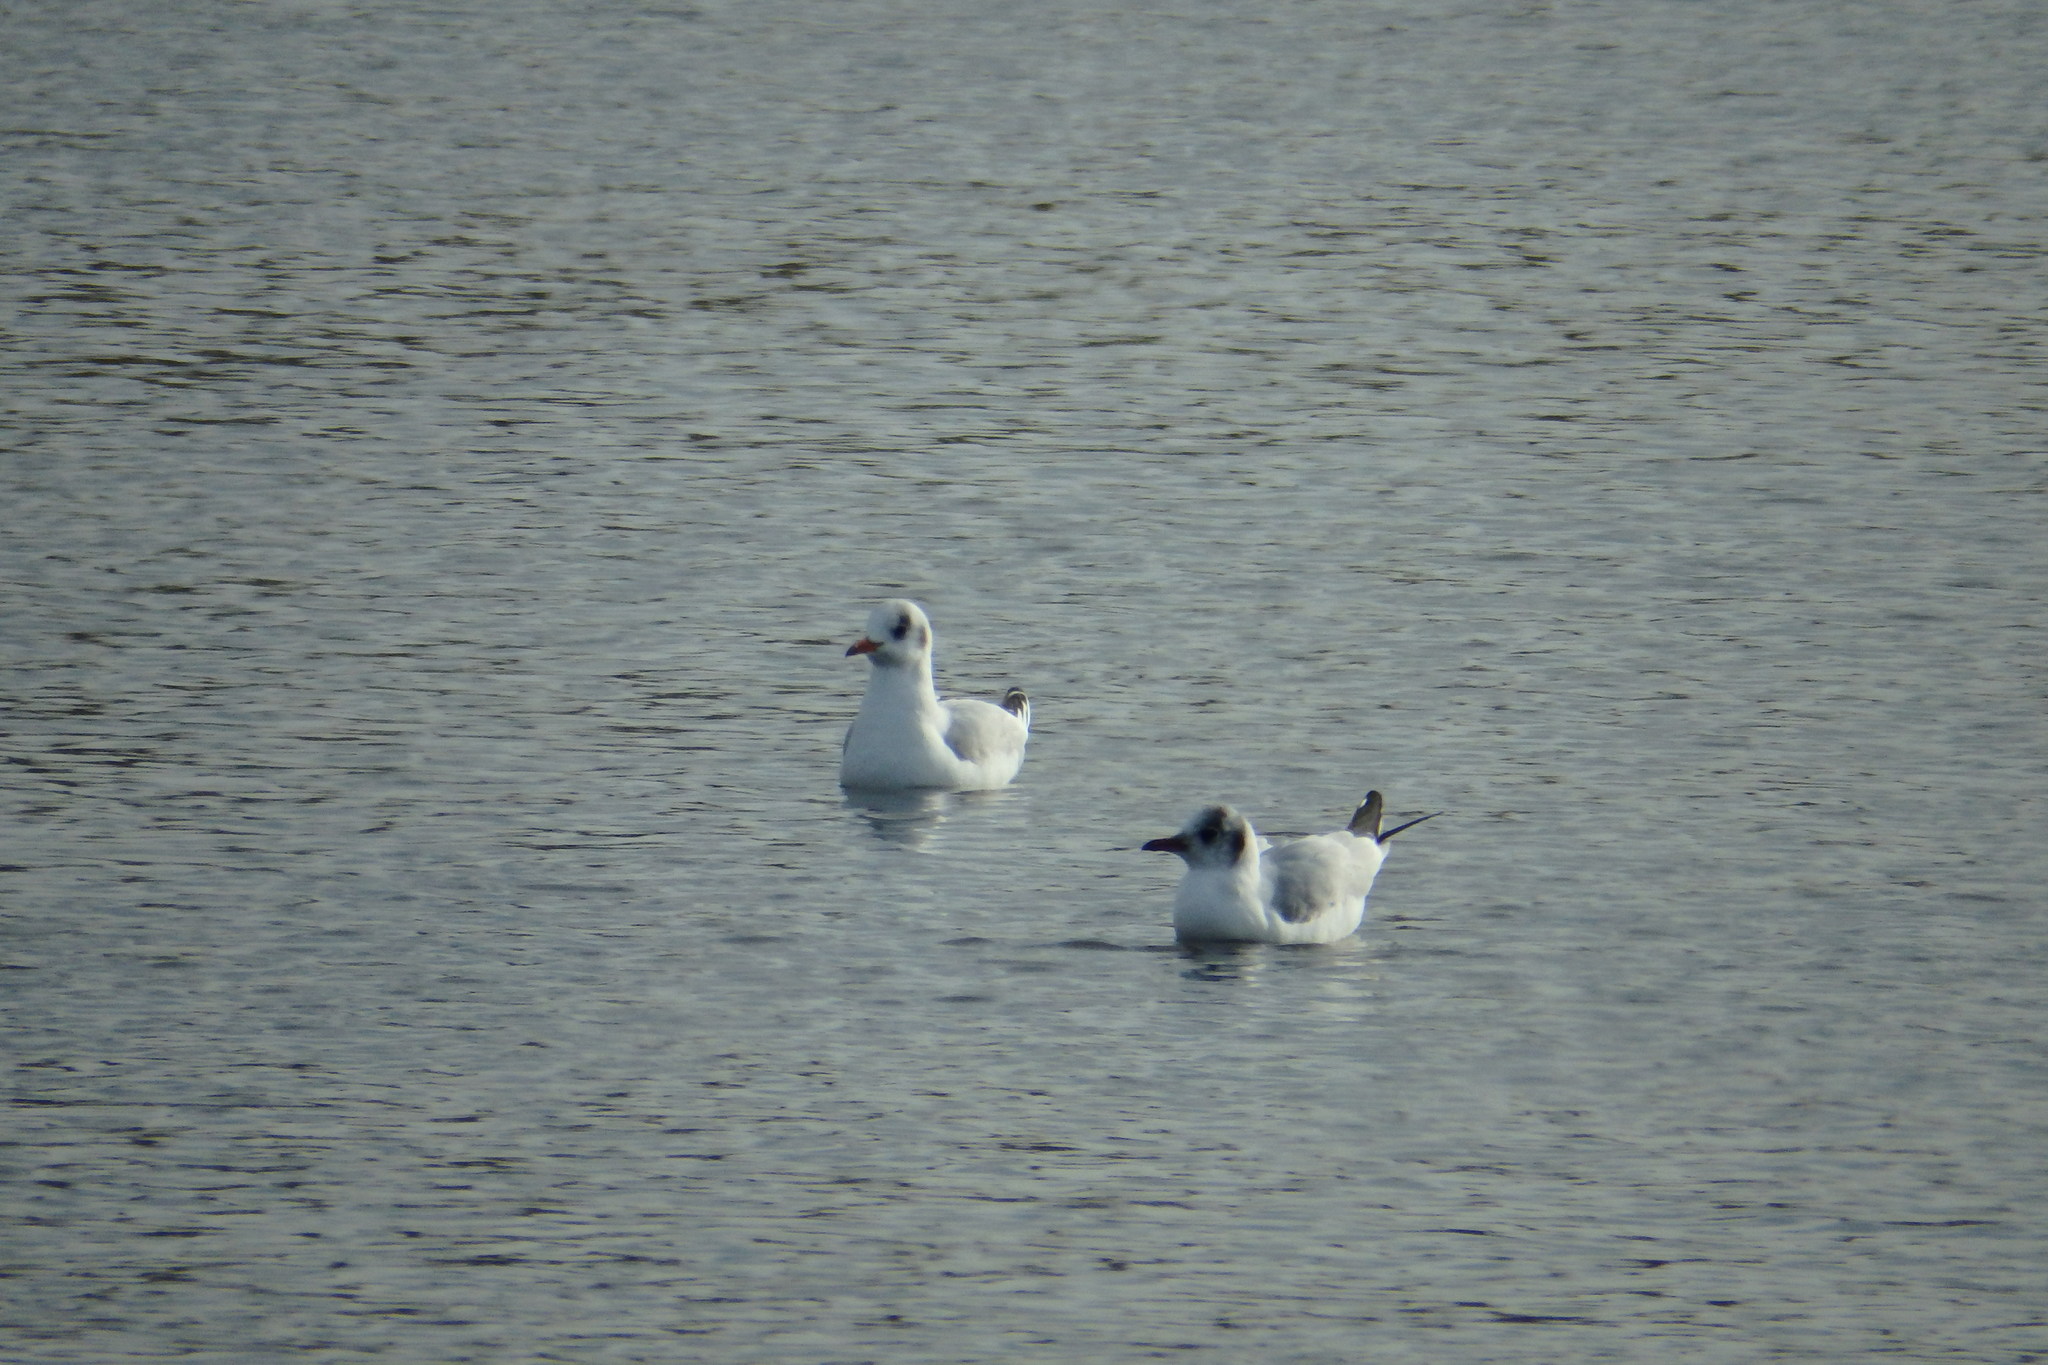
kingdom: Animalia
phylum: Chordata
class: Aves
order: Charadriiformes
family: Laridae
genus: Chroicocephalus
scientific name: Chroicocephalus ridibundus
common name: Black-headed gull
